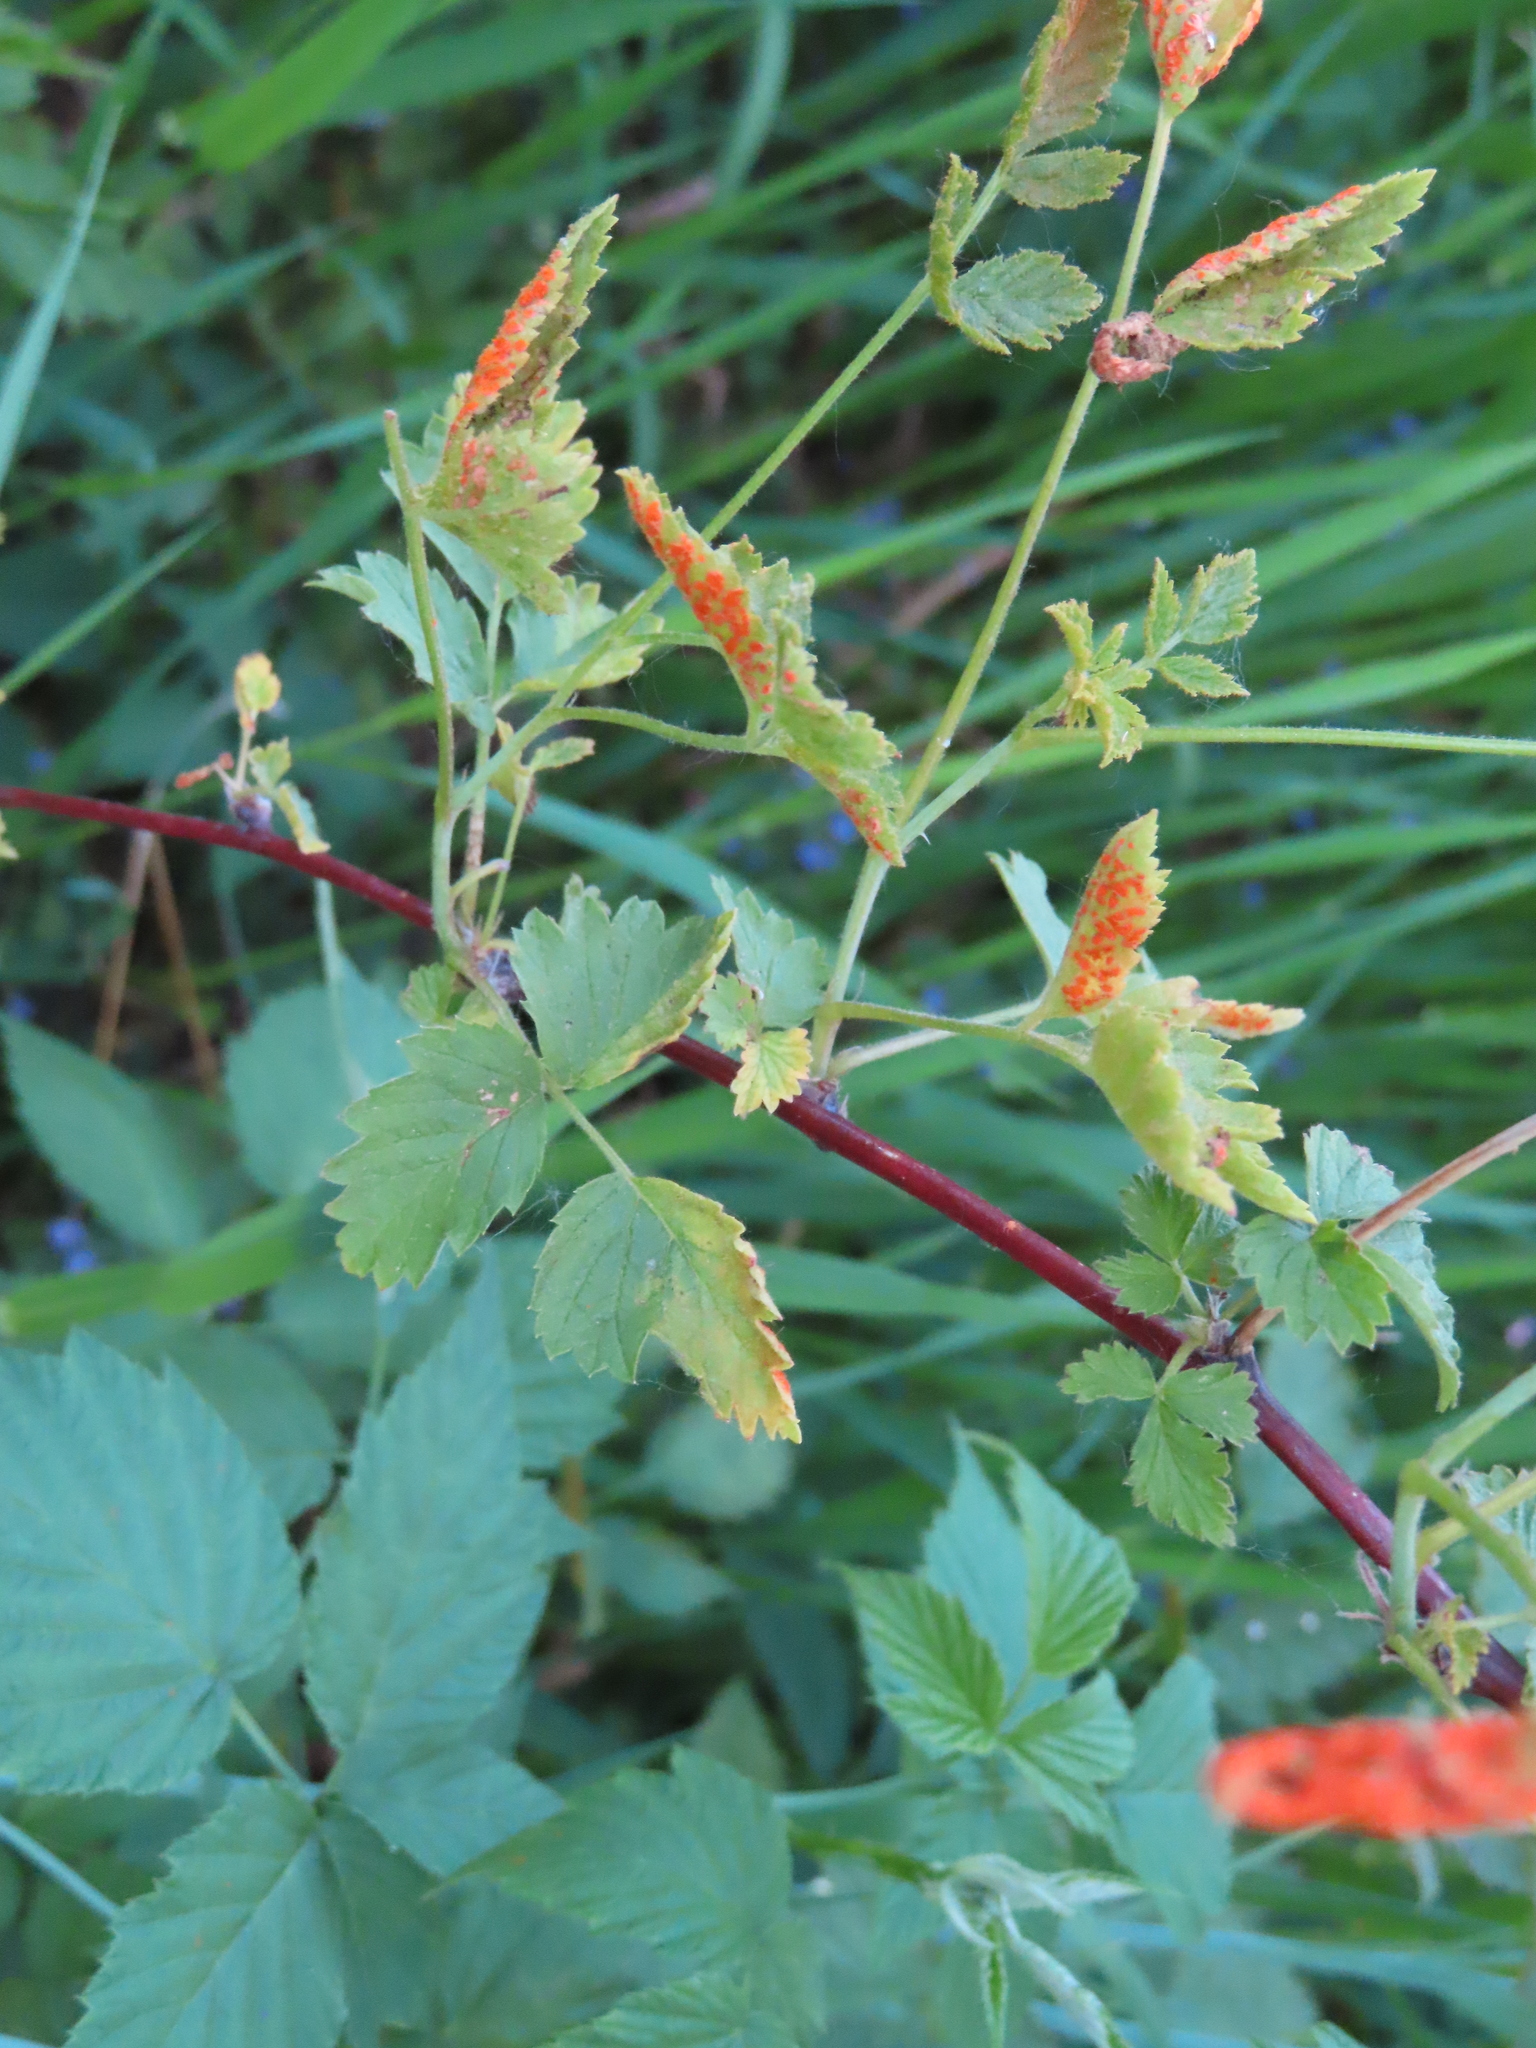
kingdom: Fungi
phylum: Basidiomycota
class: Pucciniomycetes
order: Pucciniales
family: Phragmidiaceae
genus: Arthuriomyces
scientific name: Arthuriomyces peckianus
